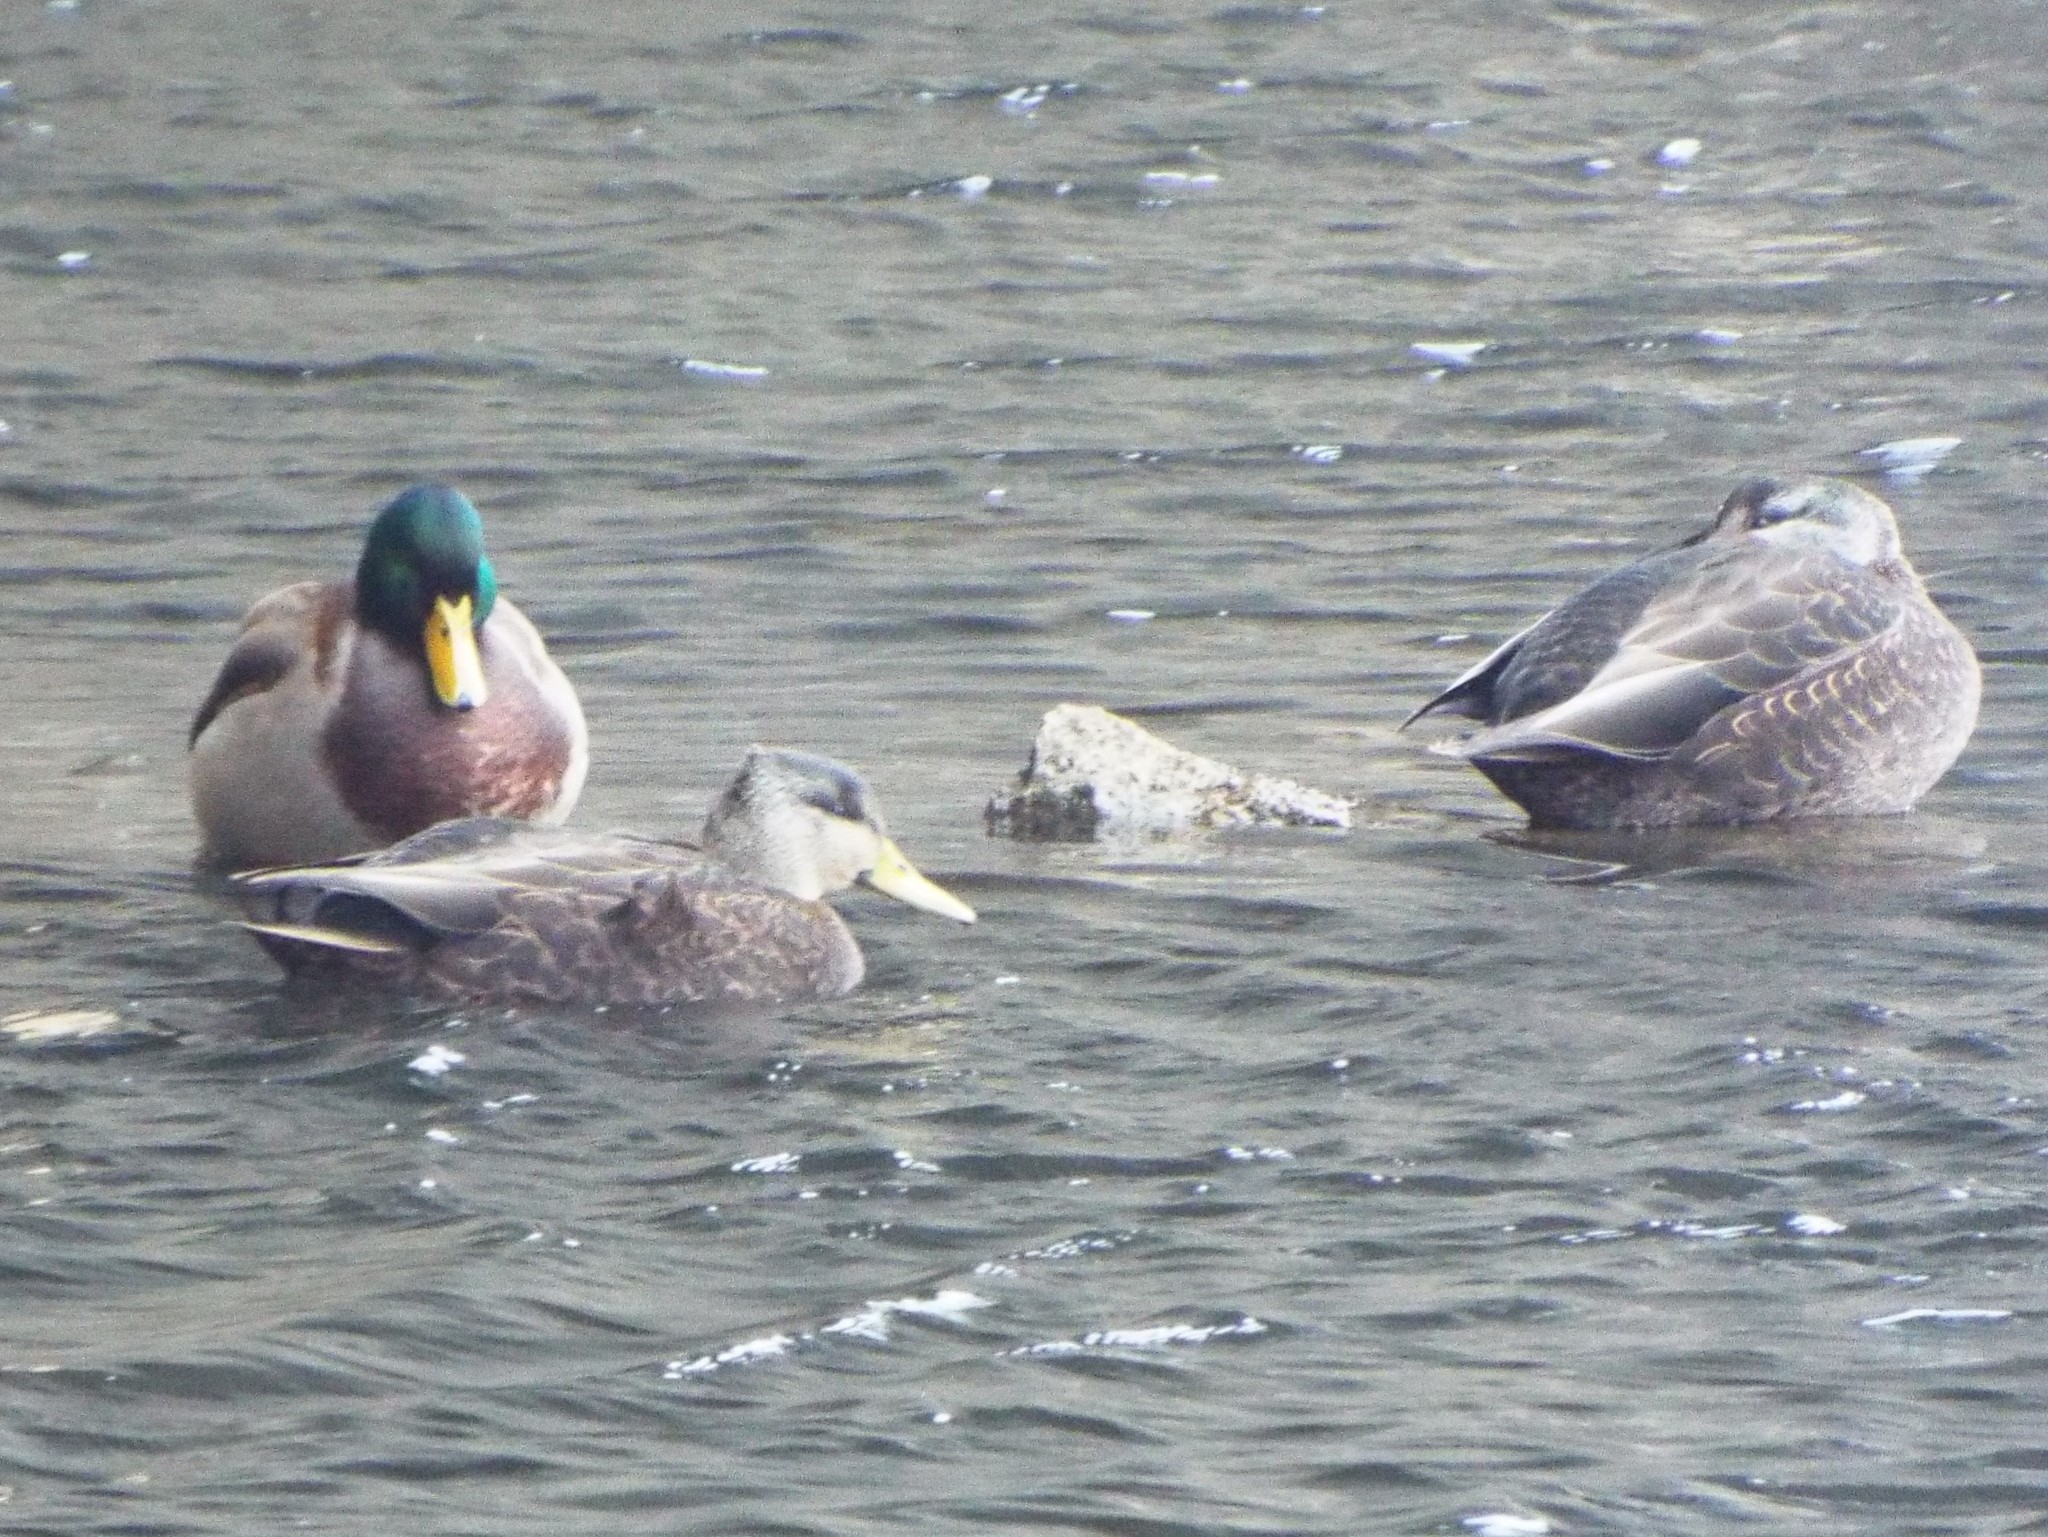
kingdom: Animalia
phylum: Chordata
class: Aves
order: Anseriformes
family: Anatidae
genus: Anas
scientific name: Anas rubripes
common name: American black duck
